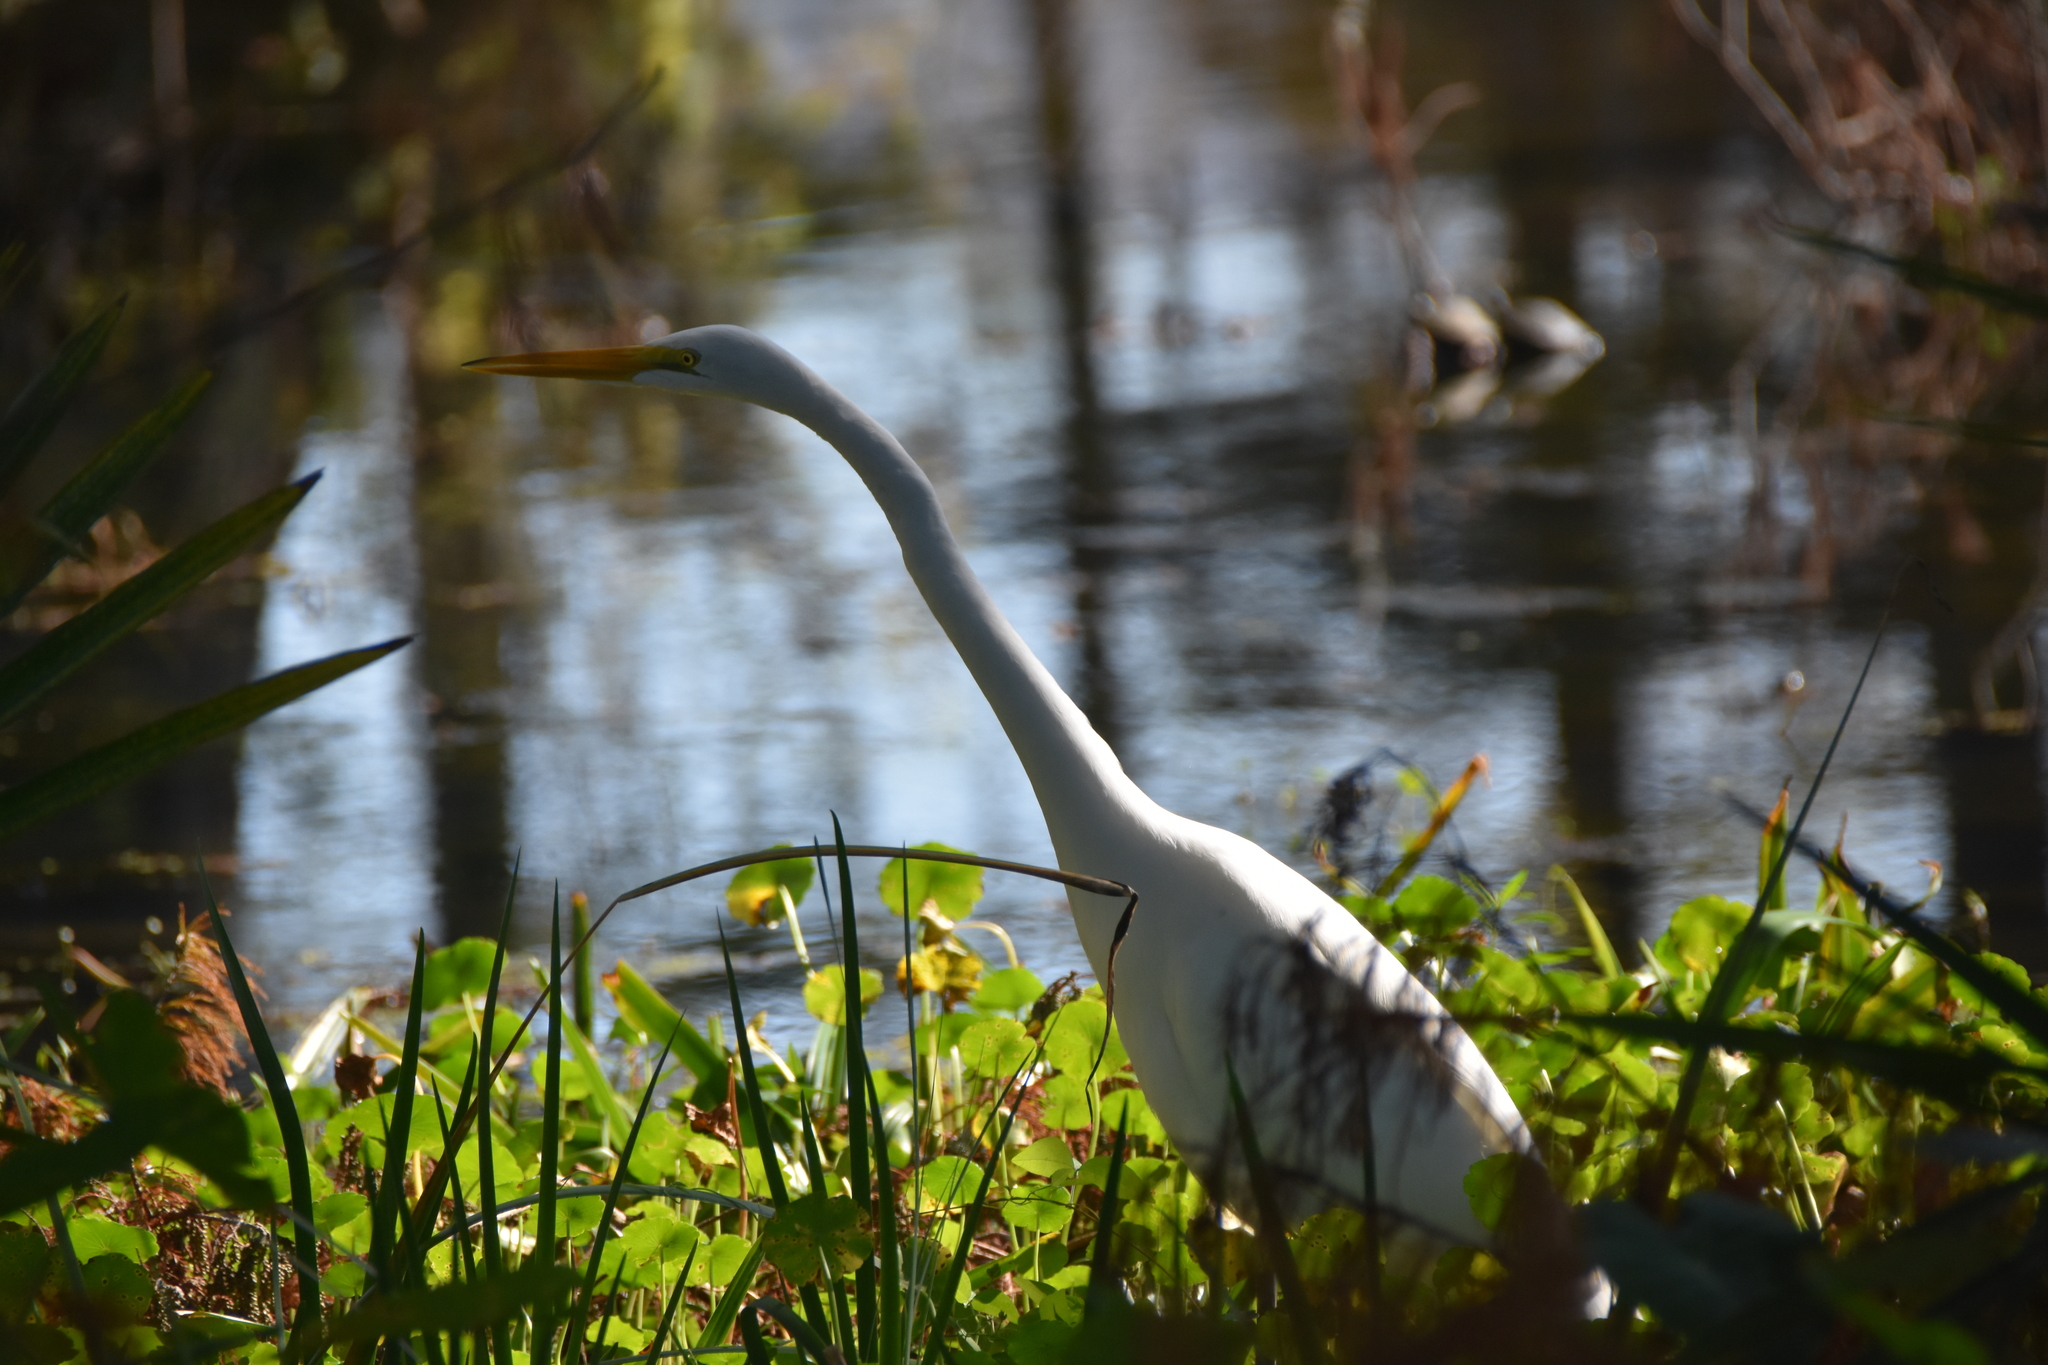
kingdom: Animalia
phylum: Chordata
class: Aves
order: Pelecaniformes
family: Ardeidae
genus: Ardea
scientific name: Ardea alba
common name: Great egret
